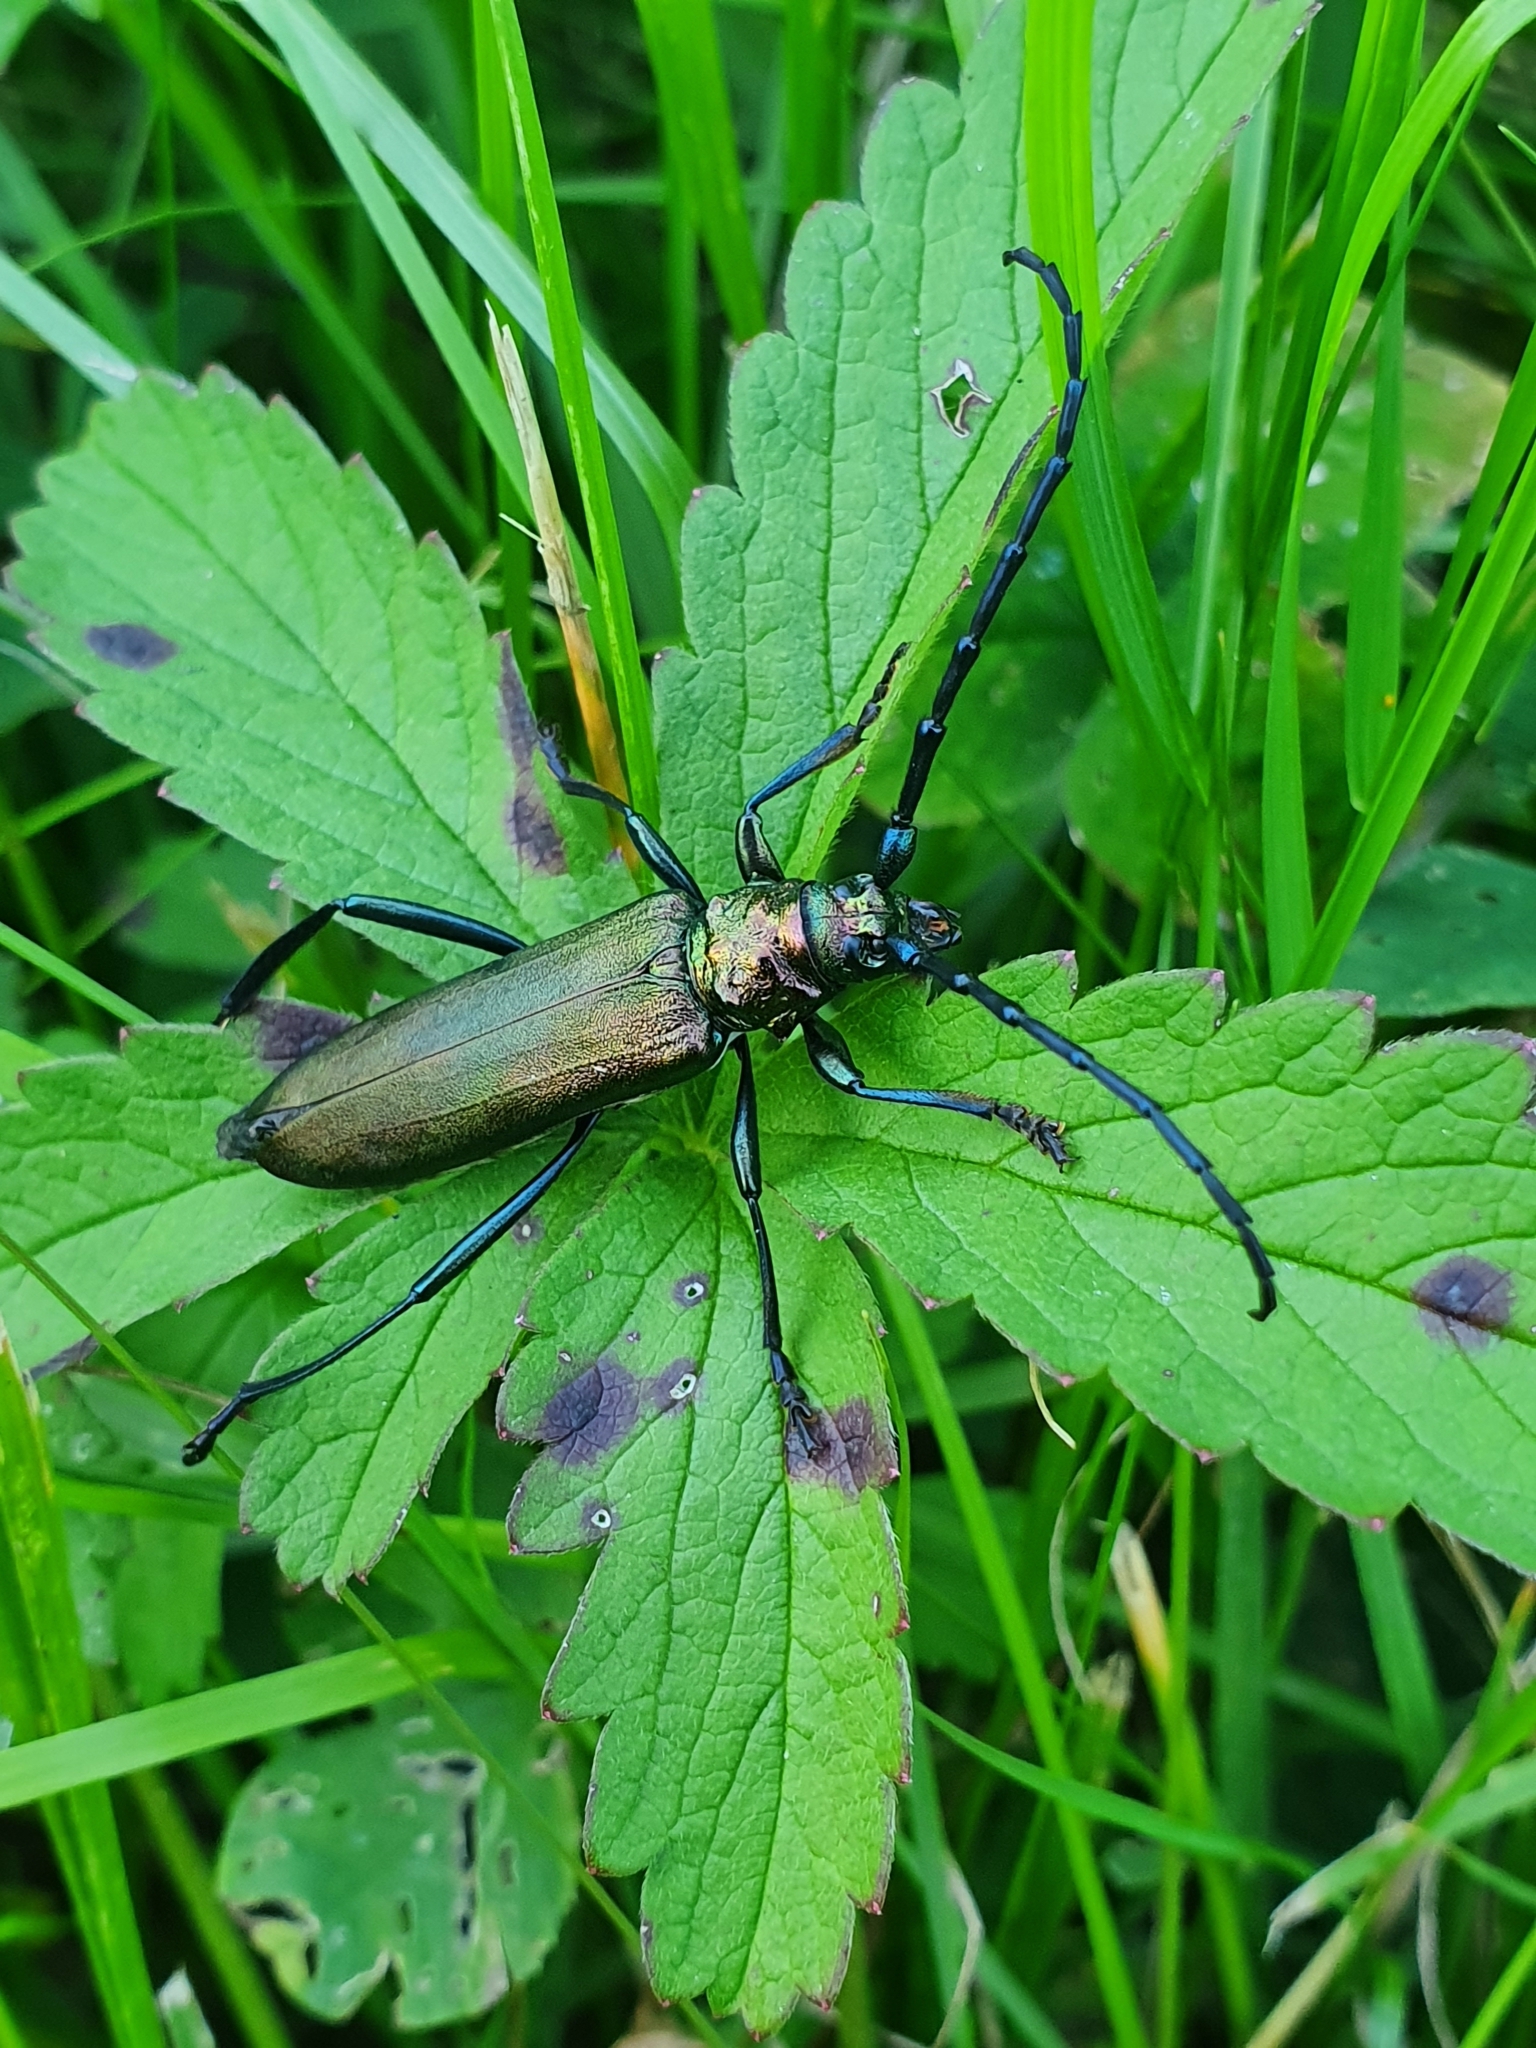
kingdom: Animalia
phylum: Arthropoda
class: Insecta
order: Coleoptera
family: Cerambycidae
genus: Aromia
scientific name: Aromia moschata
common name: Musk beetle
